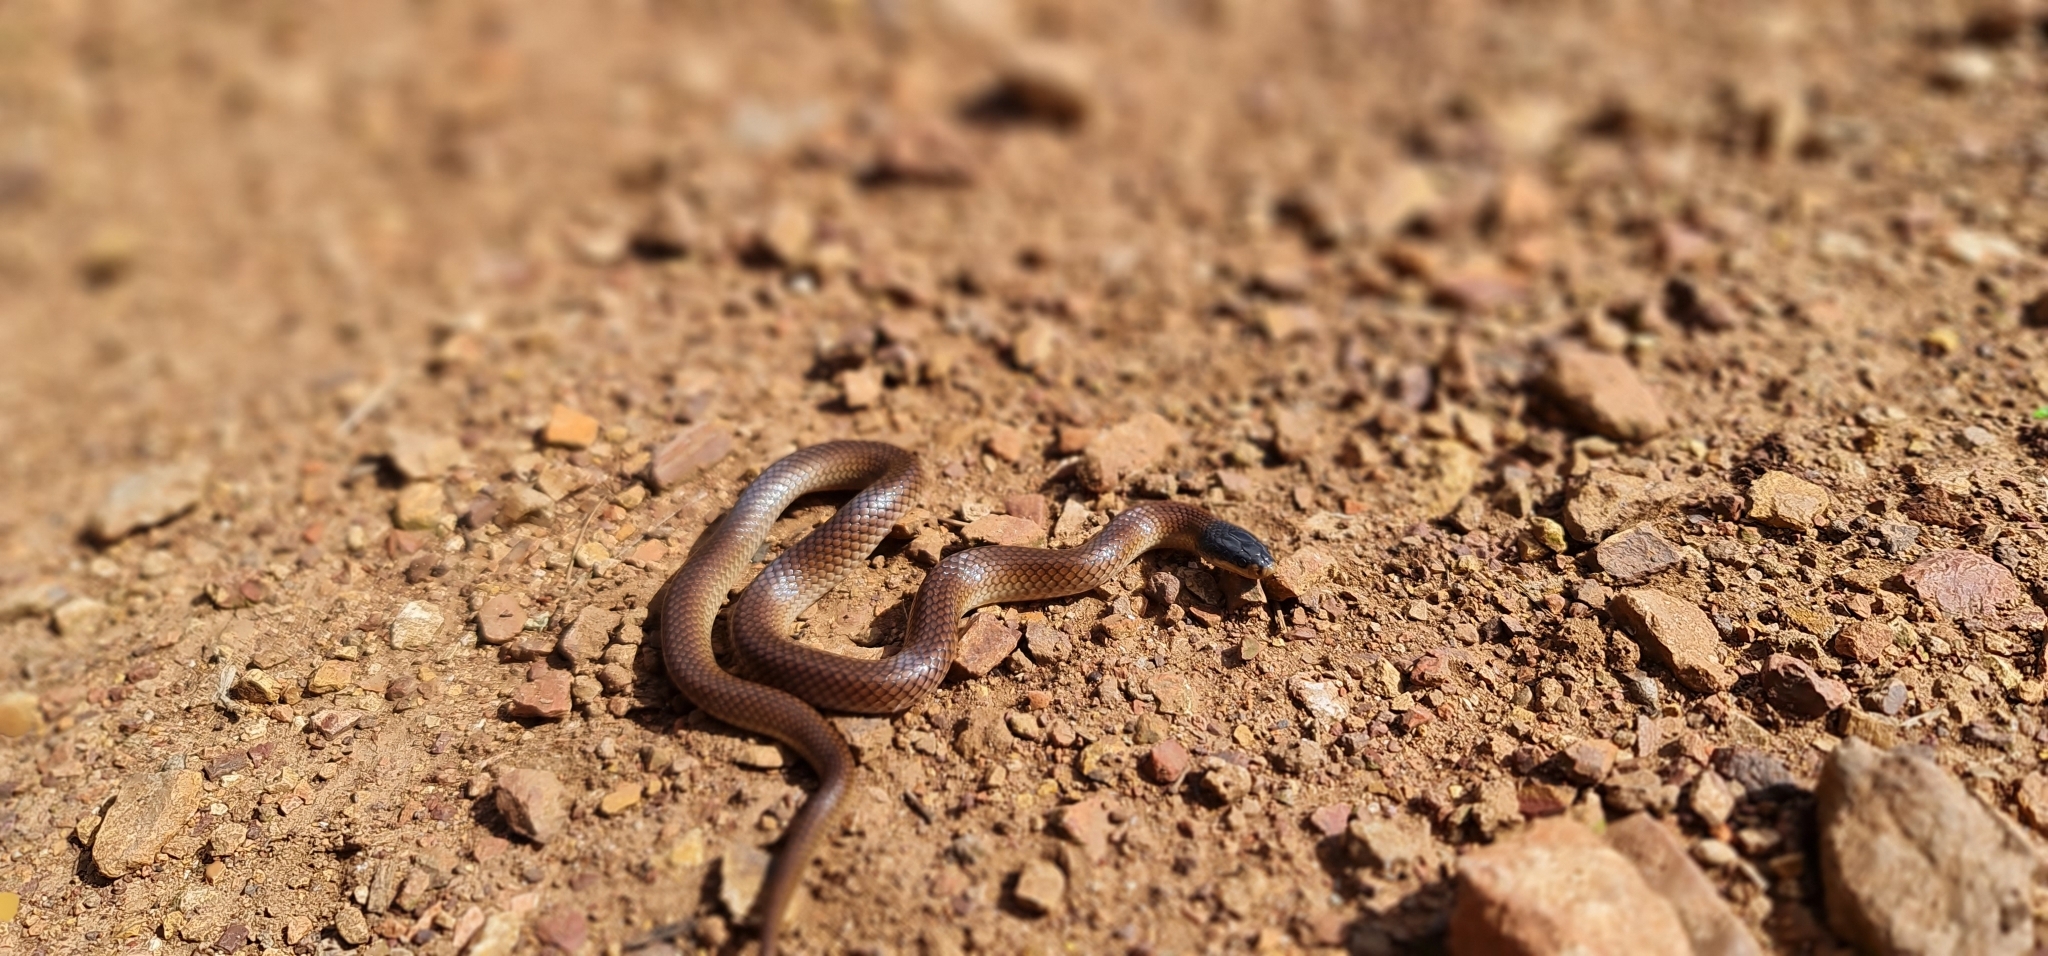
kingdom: Animalia
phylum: Chordata
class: Squamata
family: Elapidae
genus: Suta
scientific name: Suta dwyeri
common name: Variable black-naped snake
